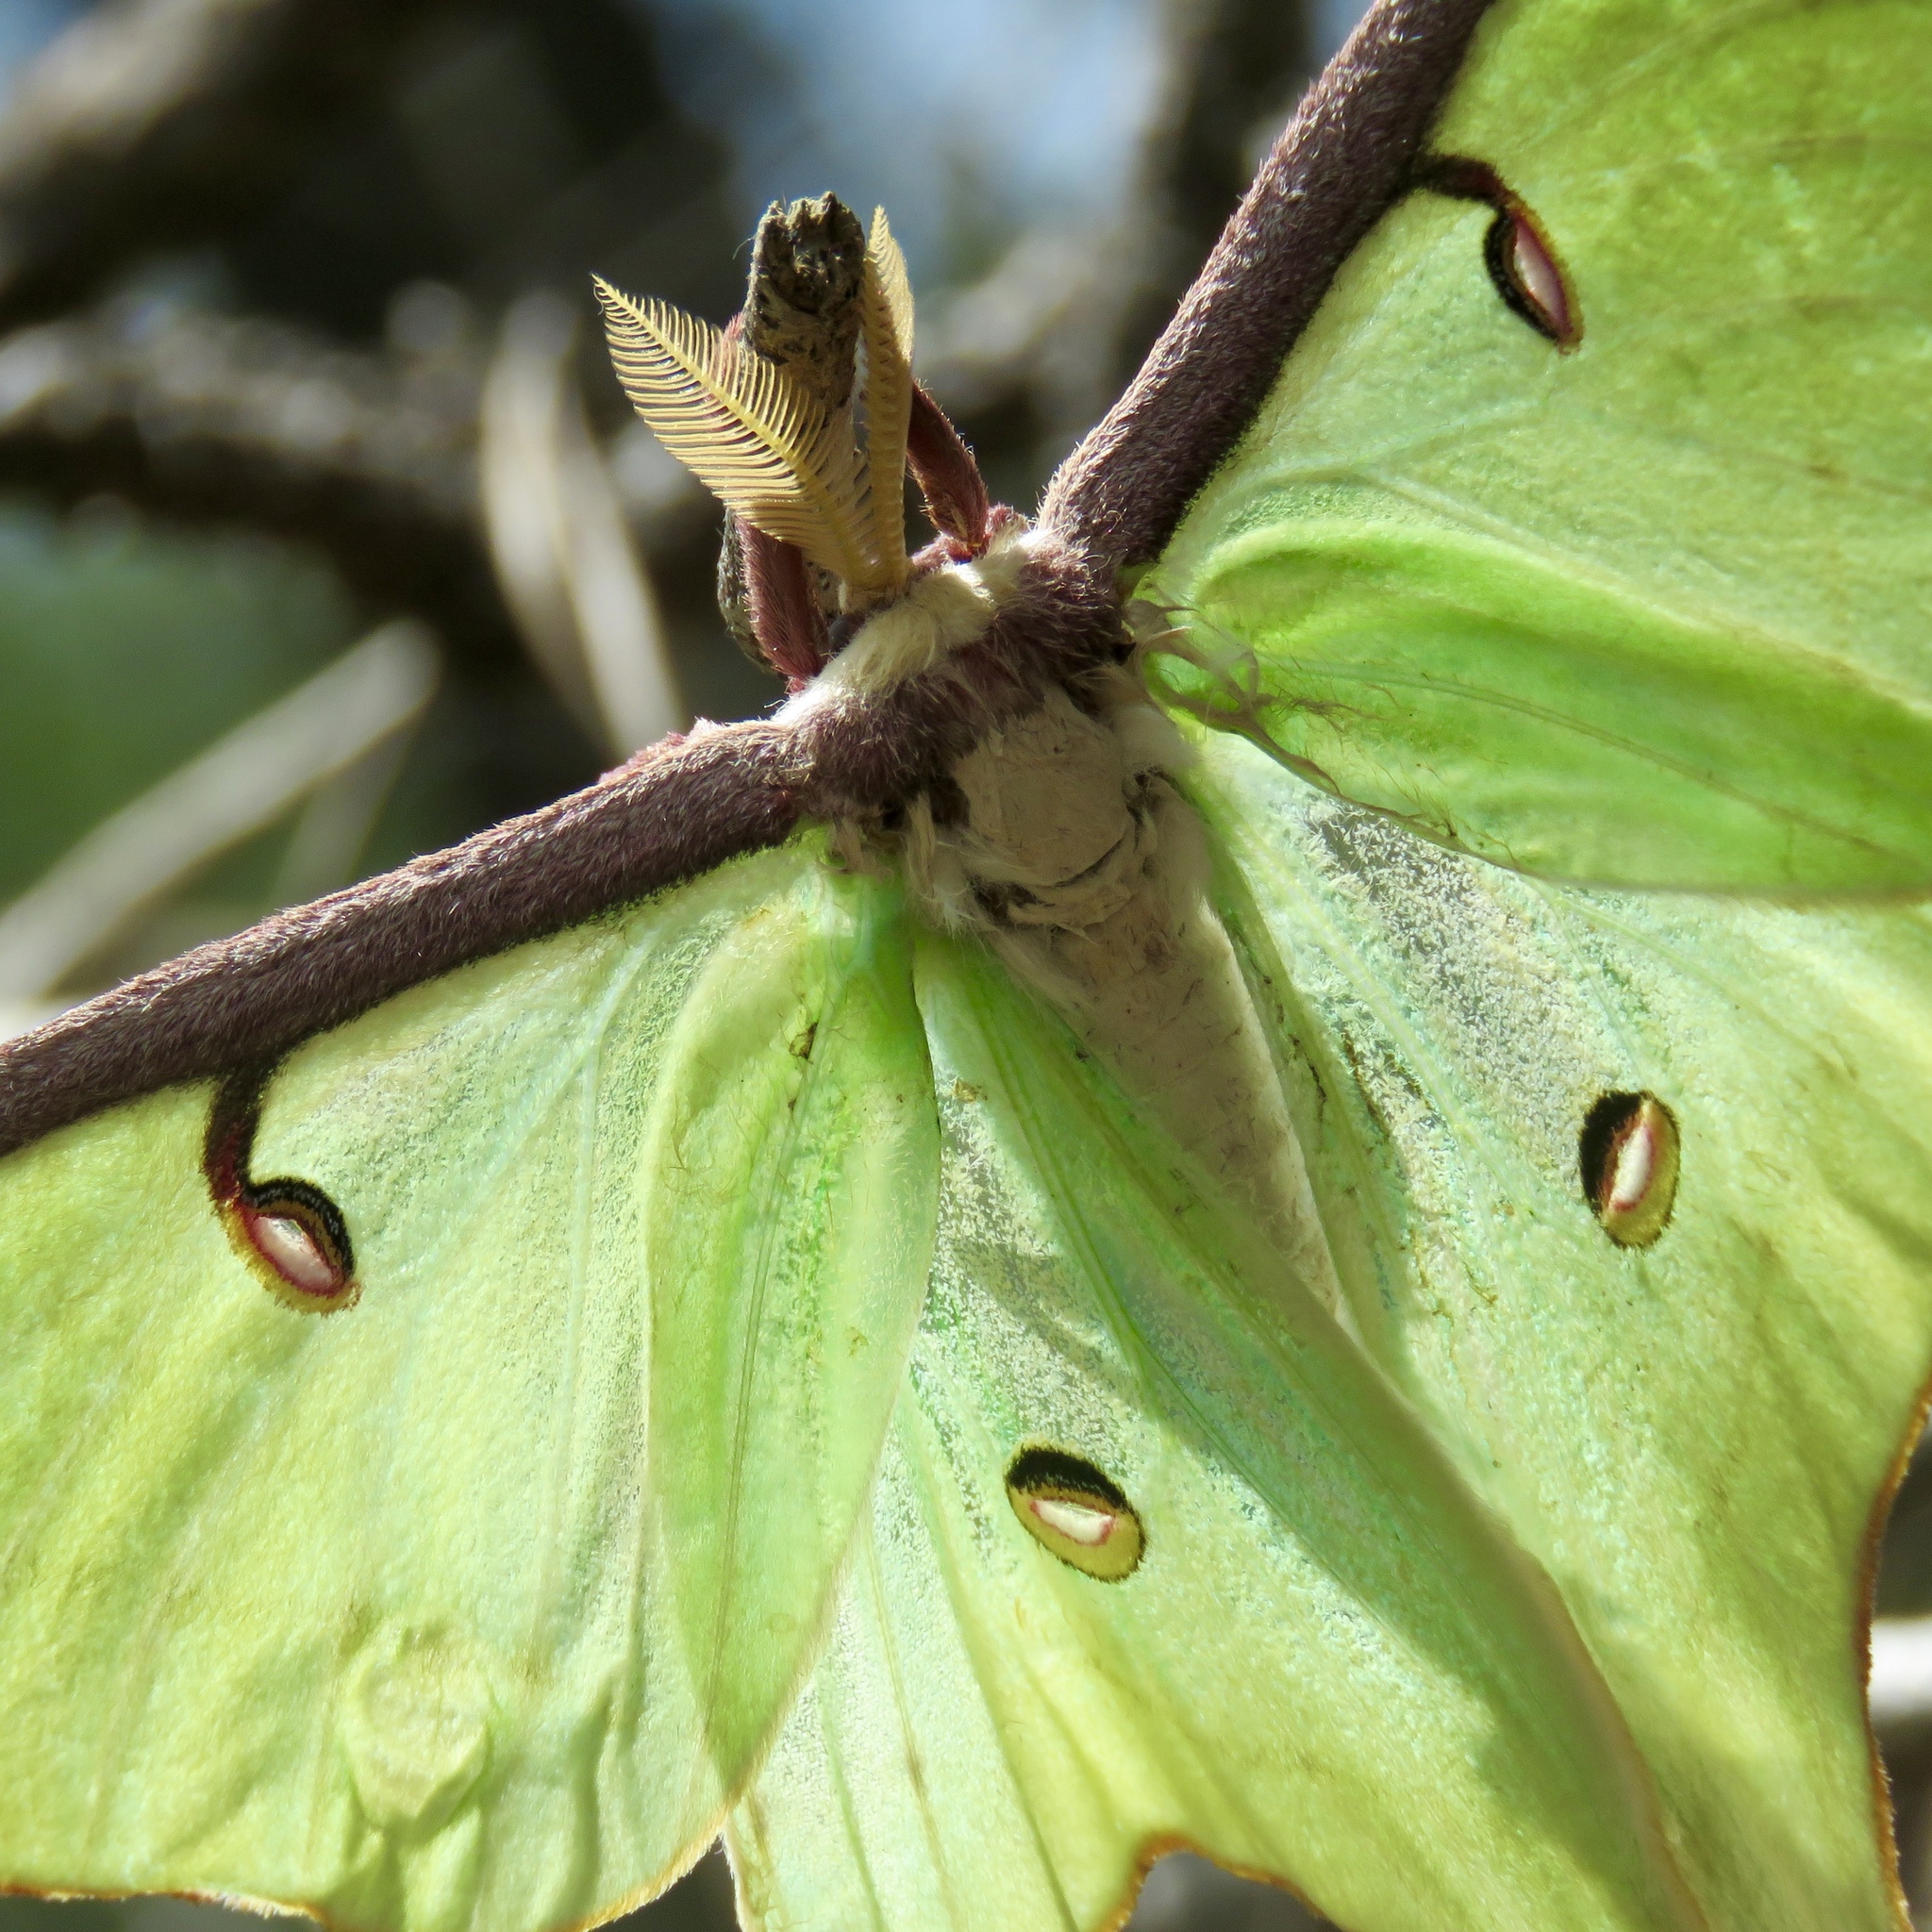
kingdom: Animalia
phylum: Arthropoda
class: Insecta
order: Lepidoptera
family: Saturniidae
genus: Actias
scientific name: Actias luna
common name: Luna moth
